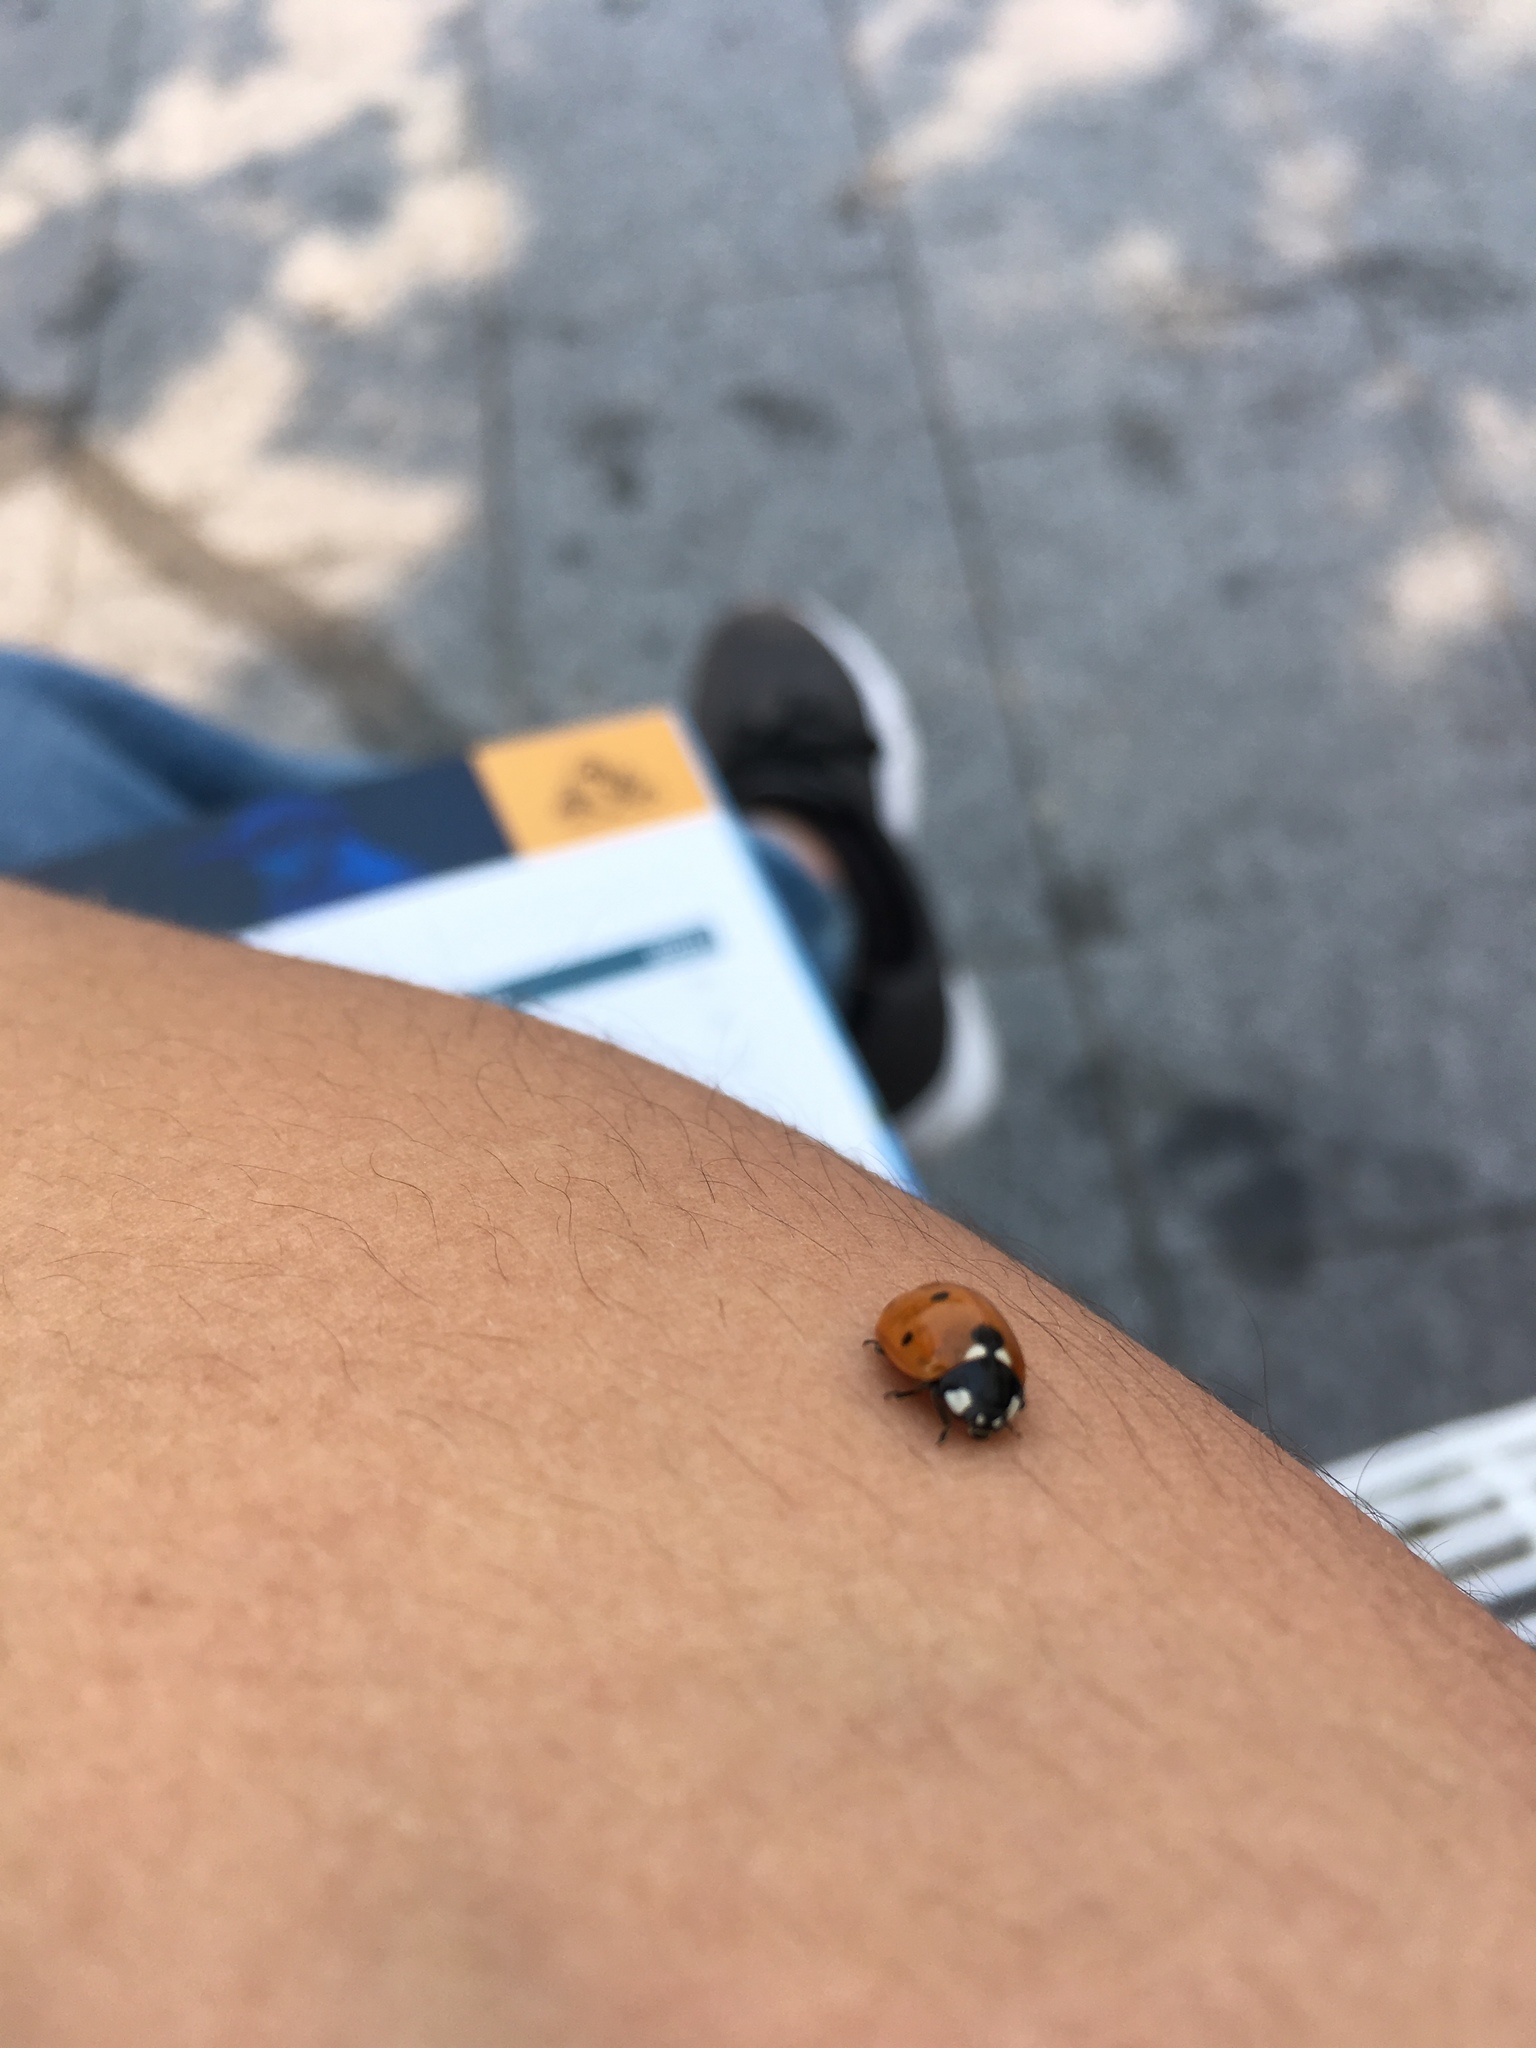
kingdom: Animalia
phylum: Arthropoda
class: Insecta
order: Coleoptera
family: Coccinellidae
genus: Coccinella
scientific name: Coccinella septempunctata
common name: Sevenspotted lady beetle
